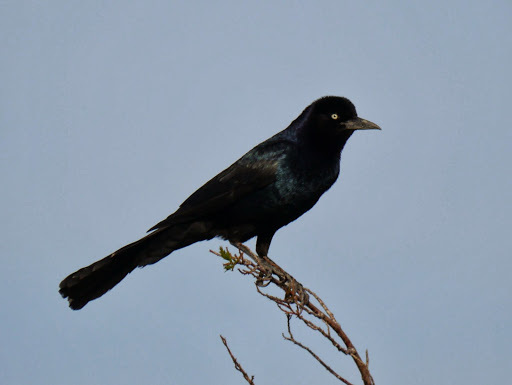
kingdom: Animalia
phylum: Chordata
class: Aves
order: Passeriformes
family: Icteridae
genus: Quiscalus
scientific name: Quiscalus major
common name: Boat-tailed grackle
